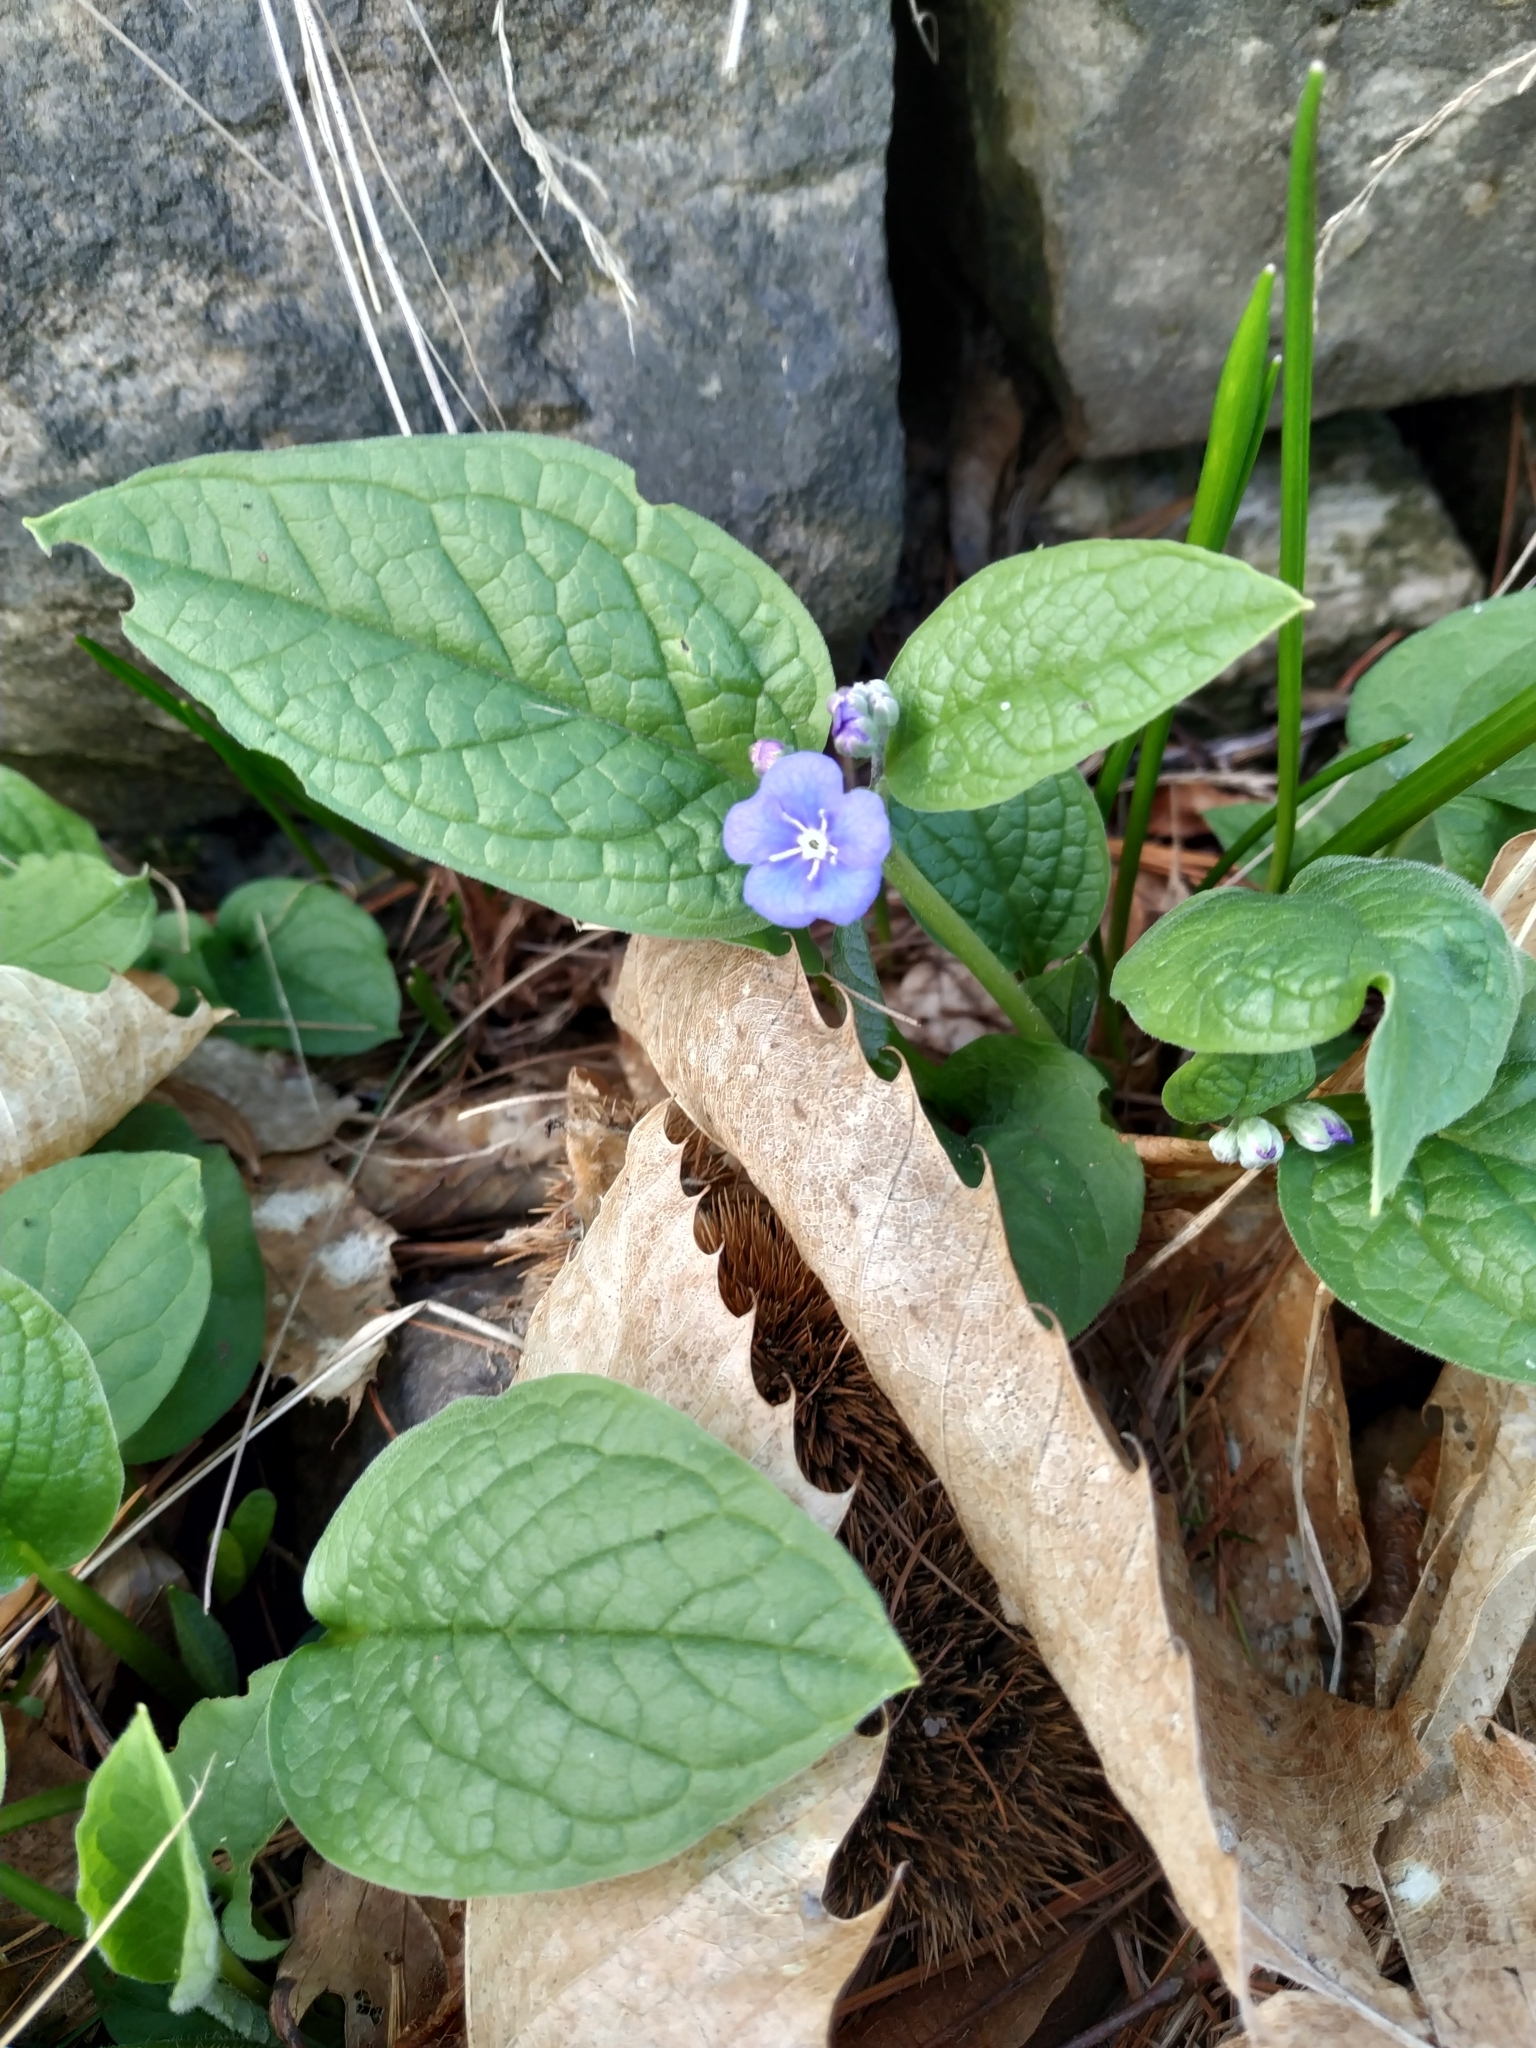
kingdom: Plantae
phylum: Tracheophyta
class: Magnoliopsida
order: Boraginales
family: Boraginaceae
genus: Omphalodes
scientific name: Omphalodes verna
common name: Blue-eyed-mary
